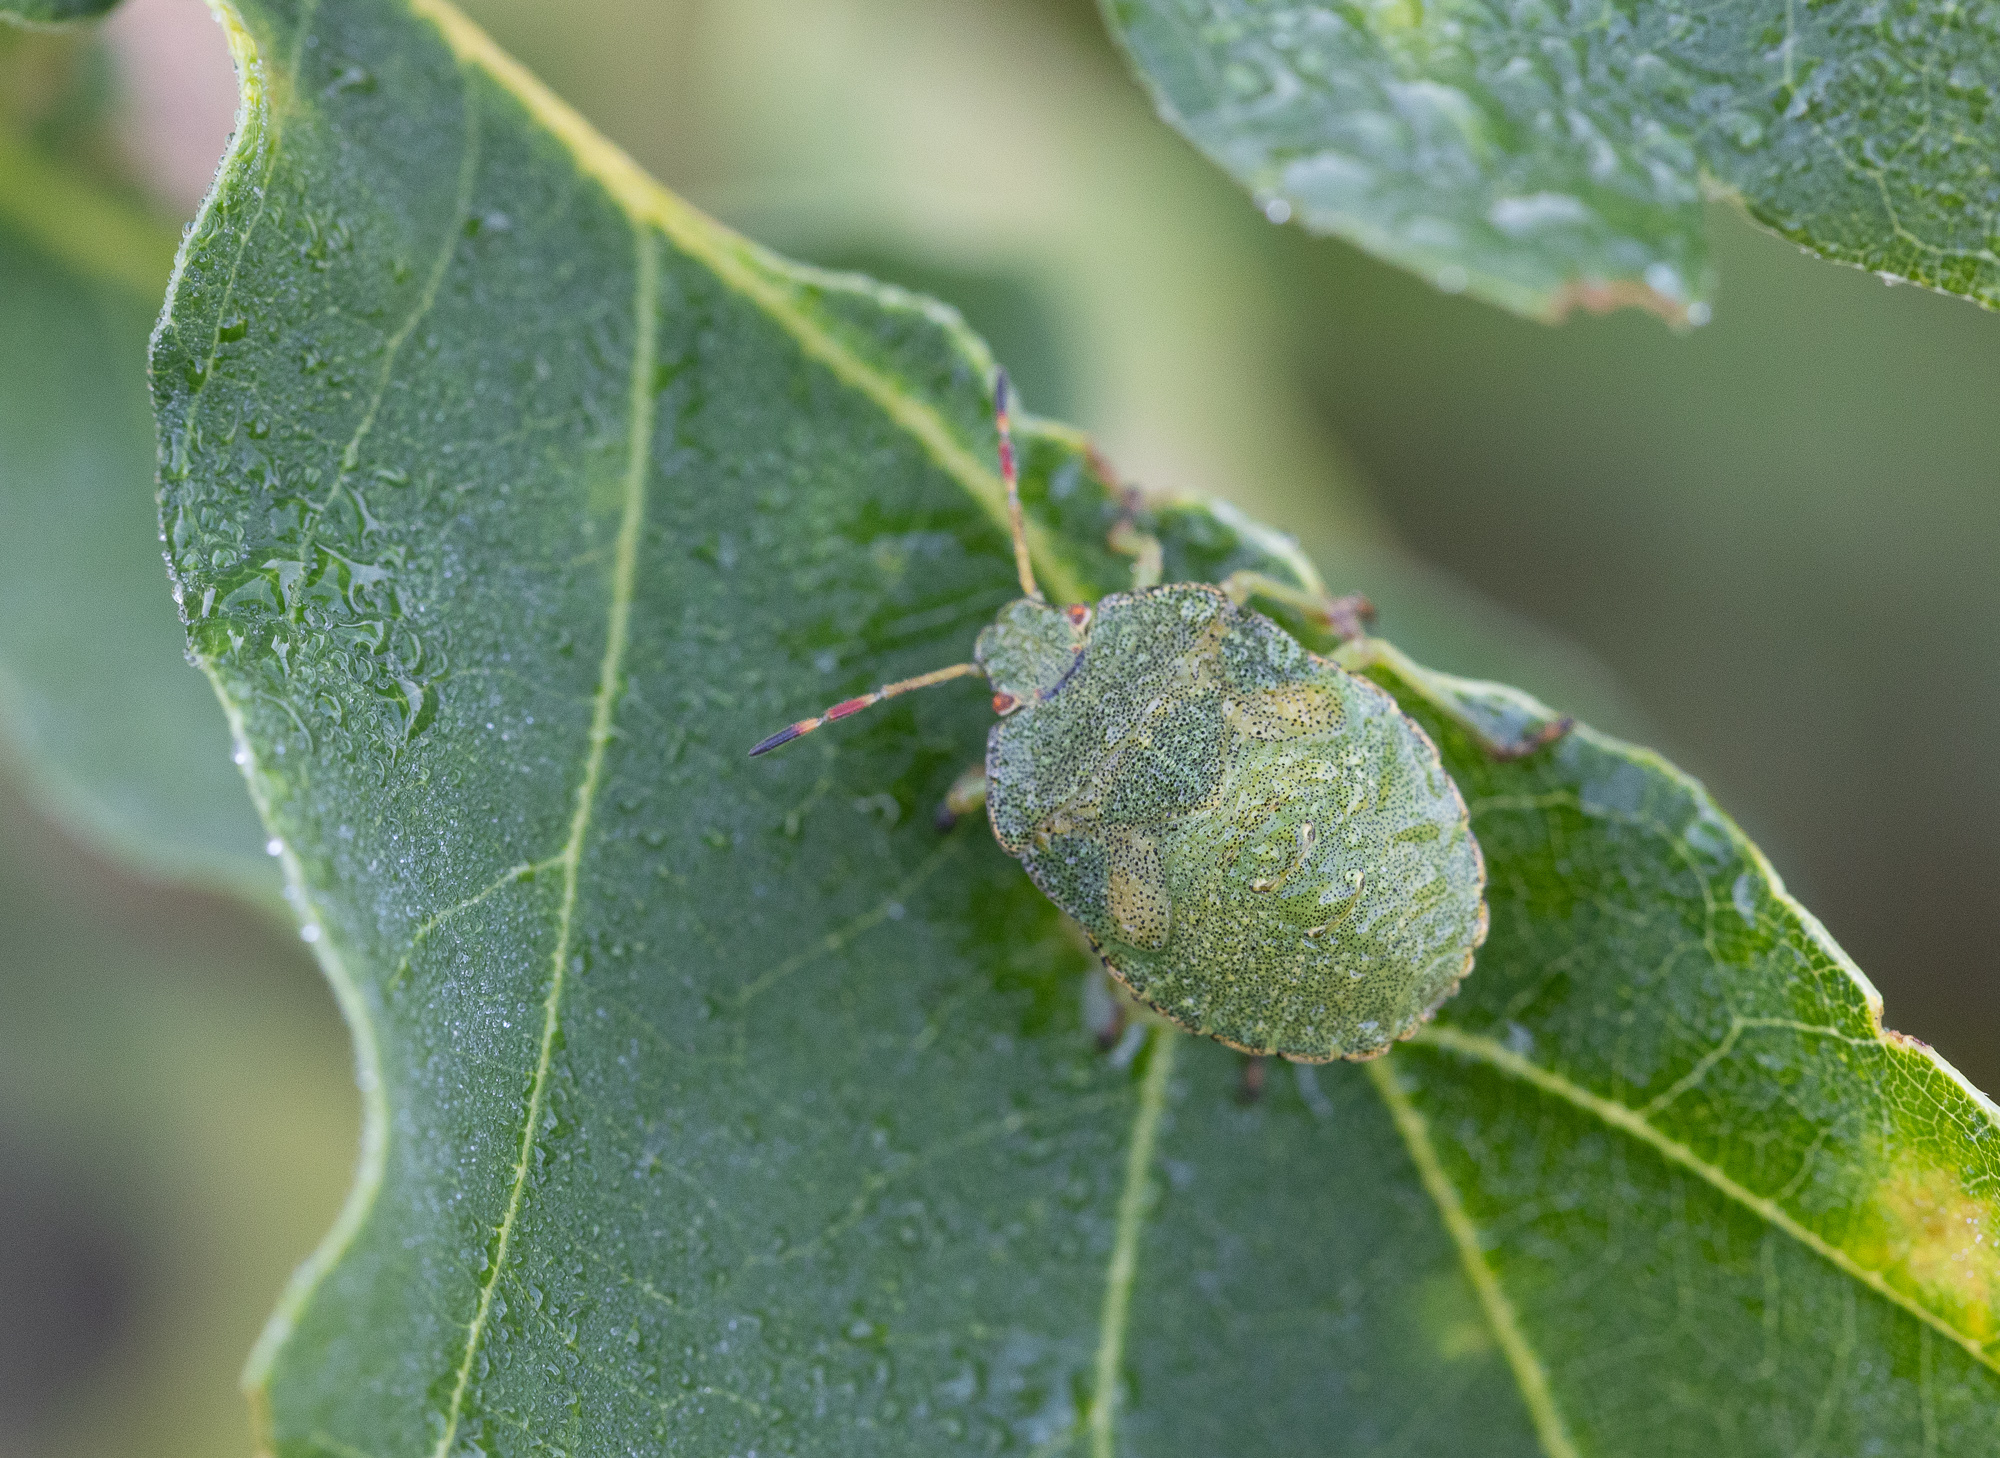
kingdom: Animalia
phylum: Arthropoda
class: Insecta
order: Hemiptera
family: Pentatomidae
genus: Palomena
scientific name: Palomena prasina
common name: Green shieldbug
